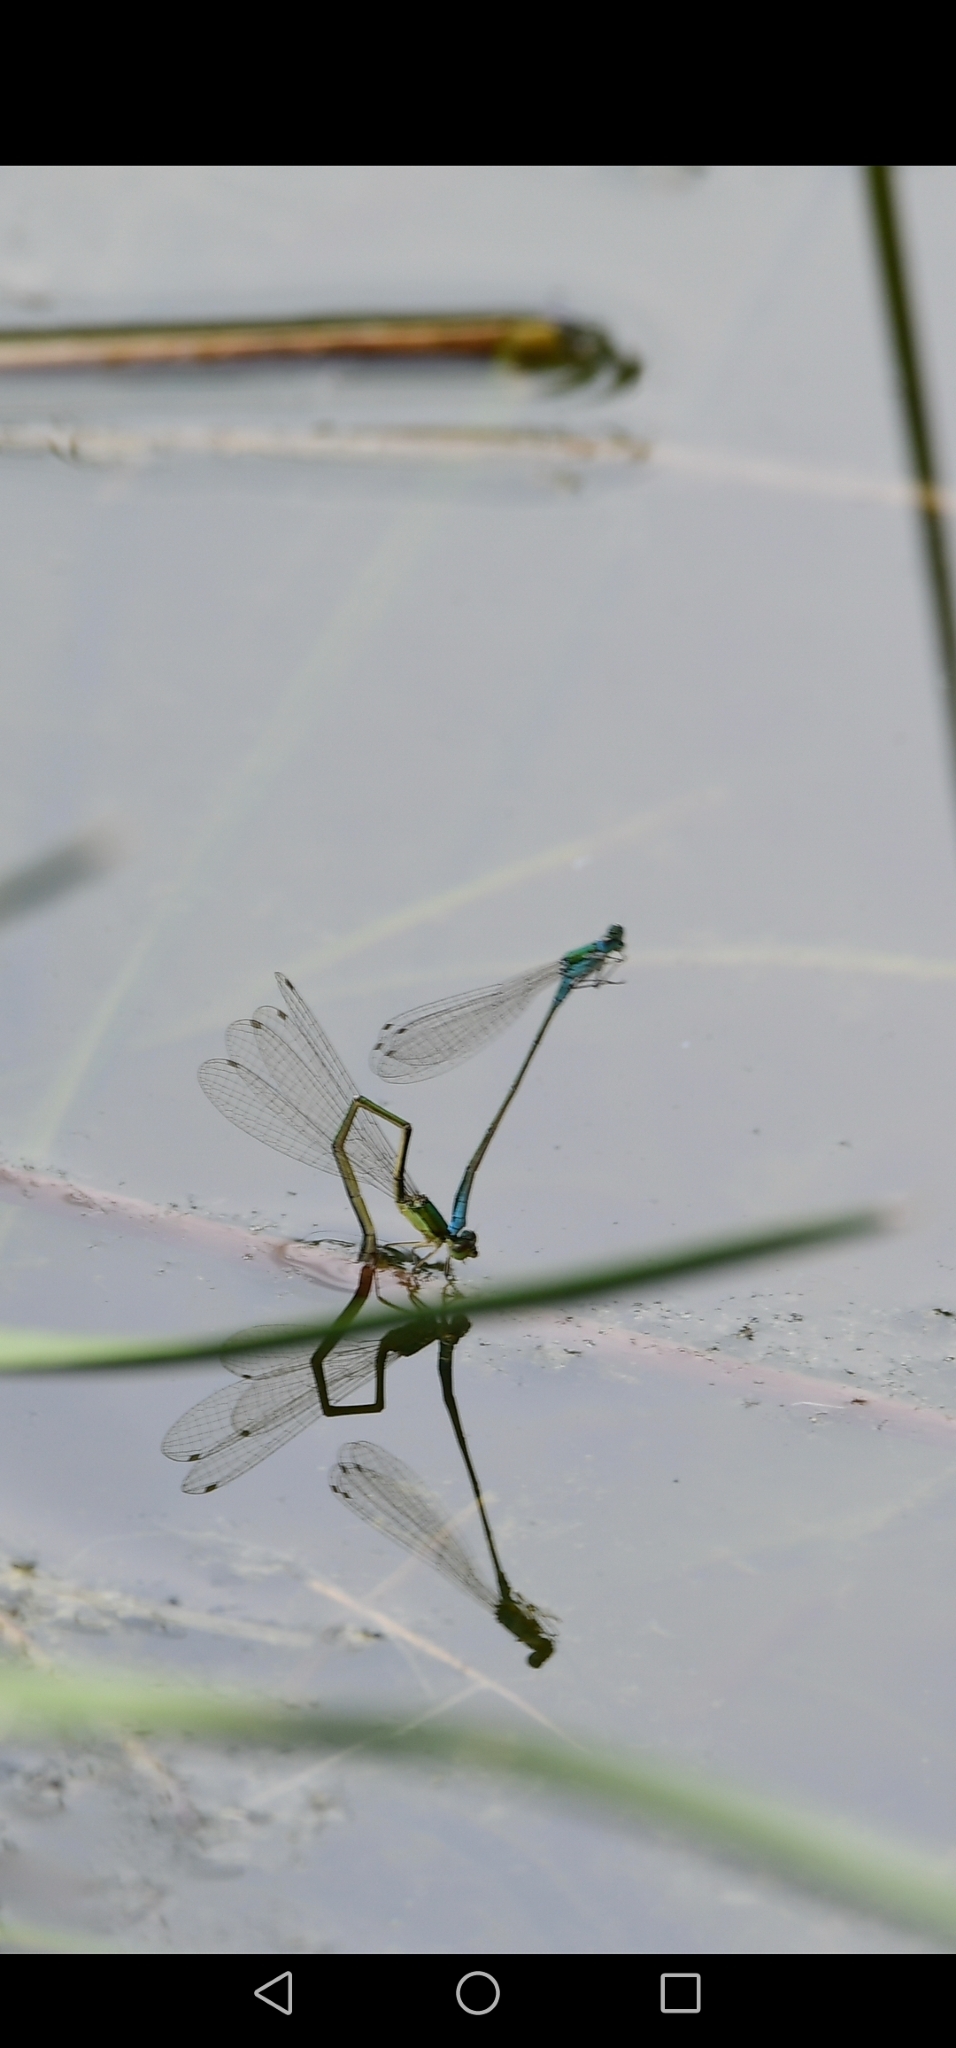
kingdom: Animalia
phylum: Arthropoda
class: Insecta
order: Odonata
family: Coenagrionidae
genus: Nehalennia
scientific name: Nehalennia irene
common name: Sedge sprite
